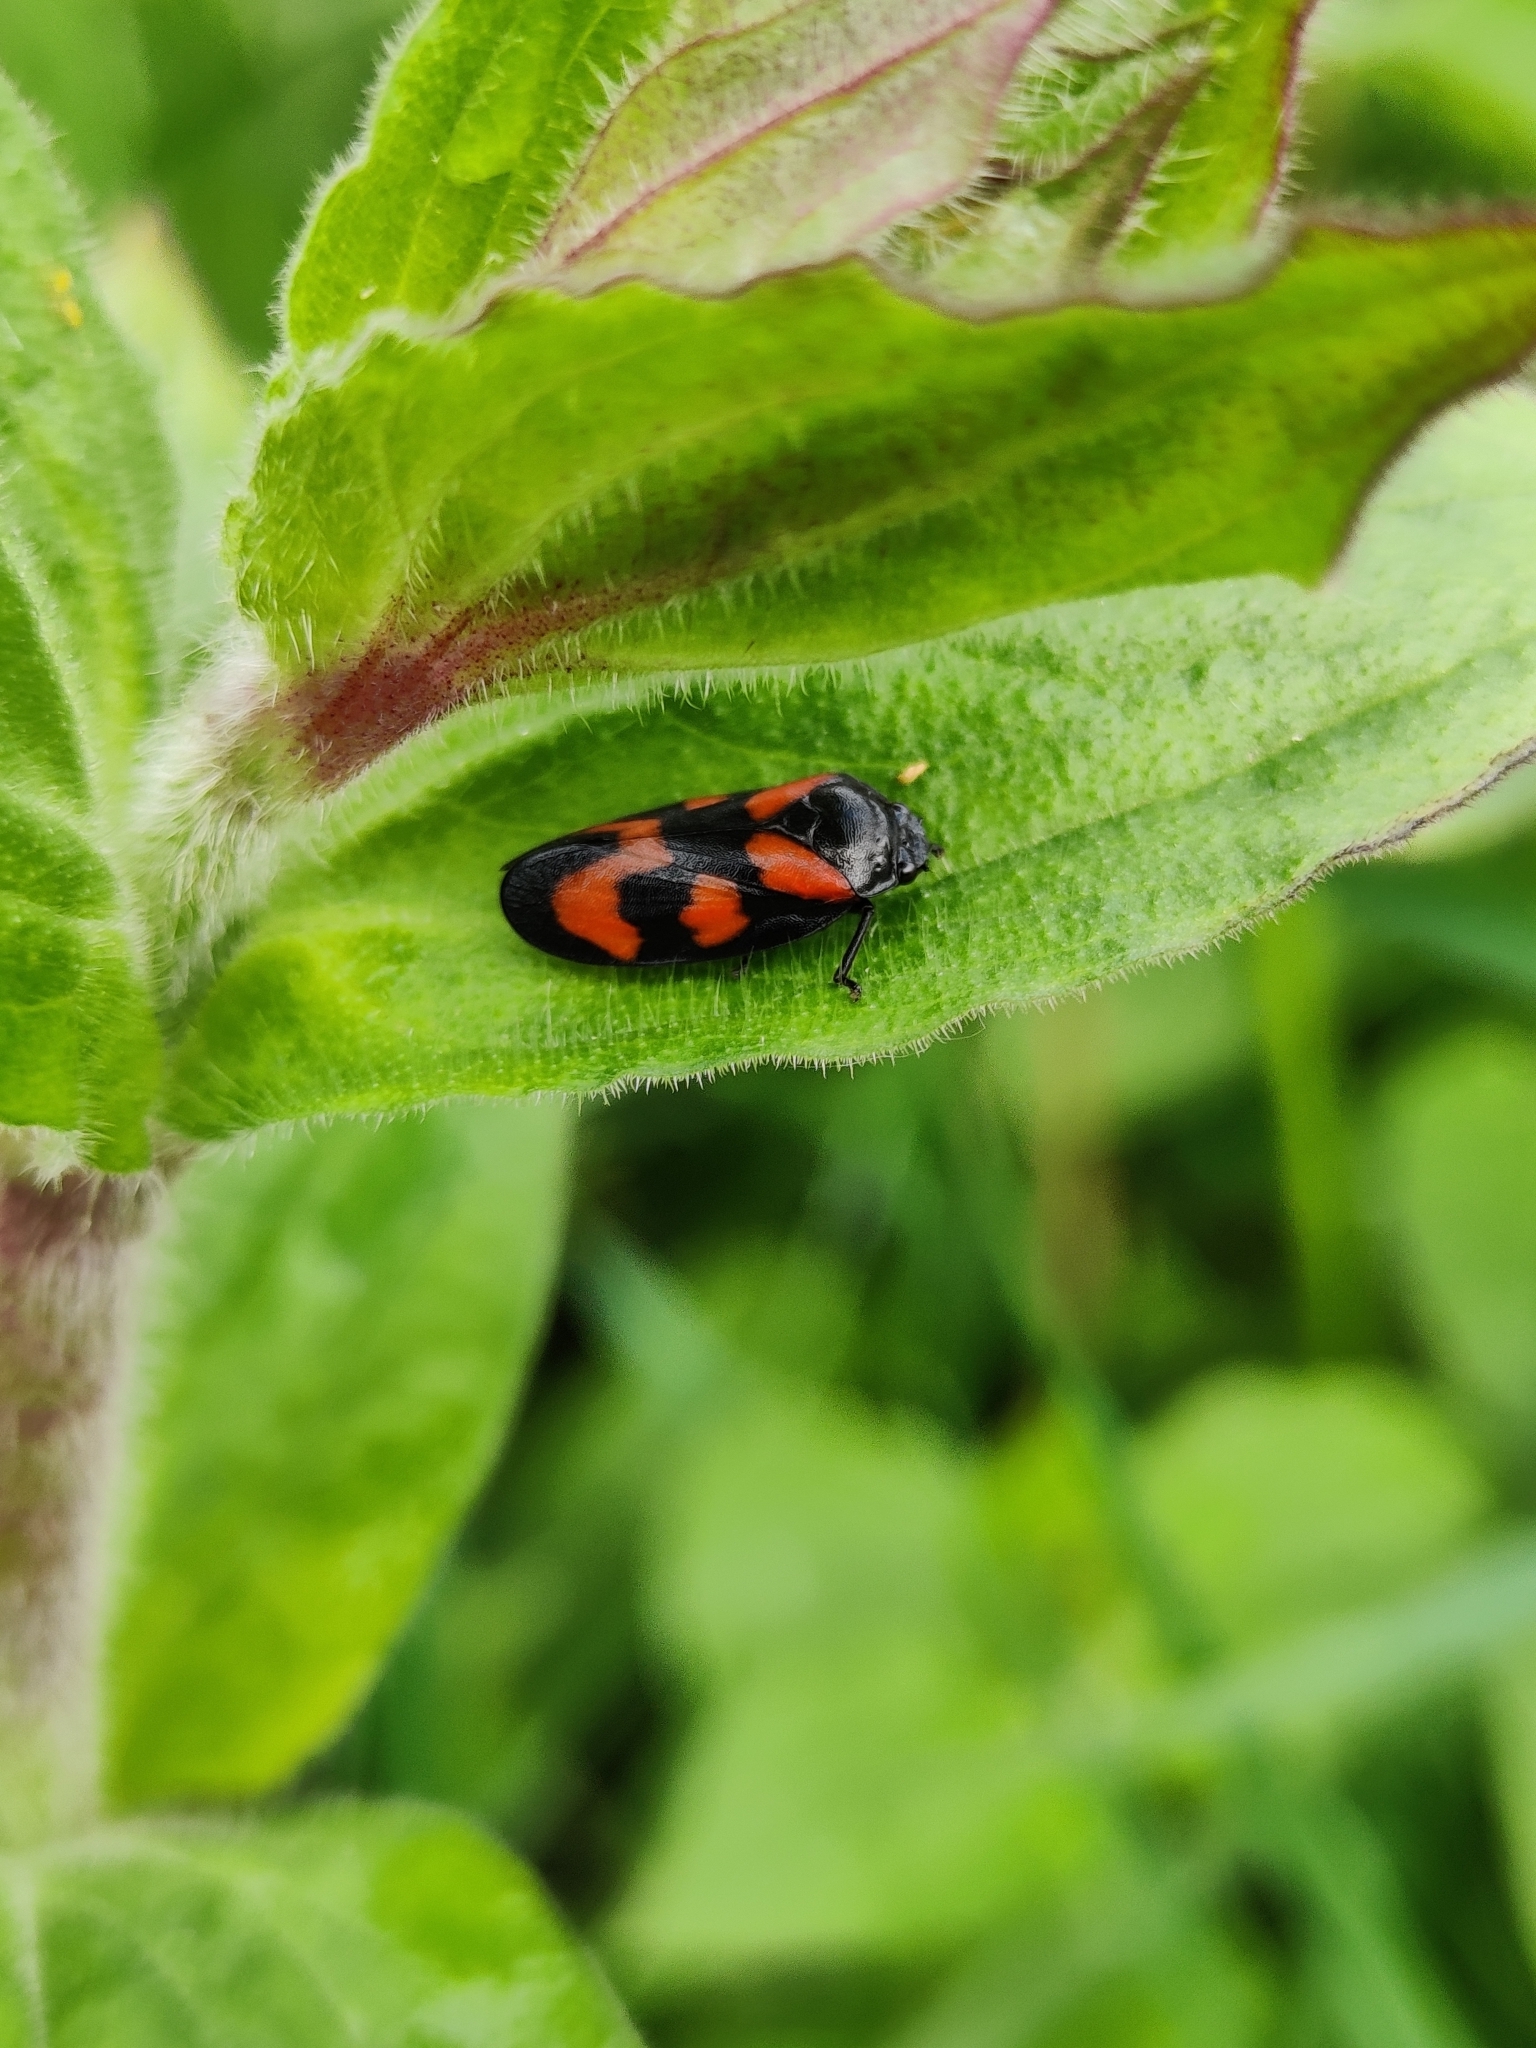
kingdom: Animalia
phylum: Arthropoda
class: Insecta
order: Hemiptera
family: Cercopidae
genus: Cercopis
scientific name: Cercopis vulnerata
